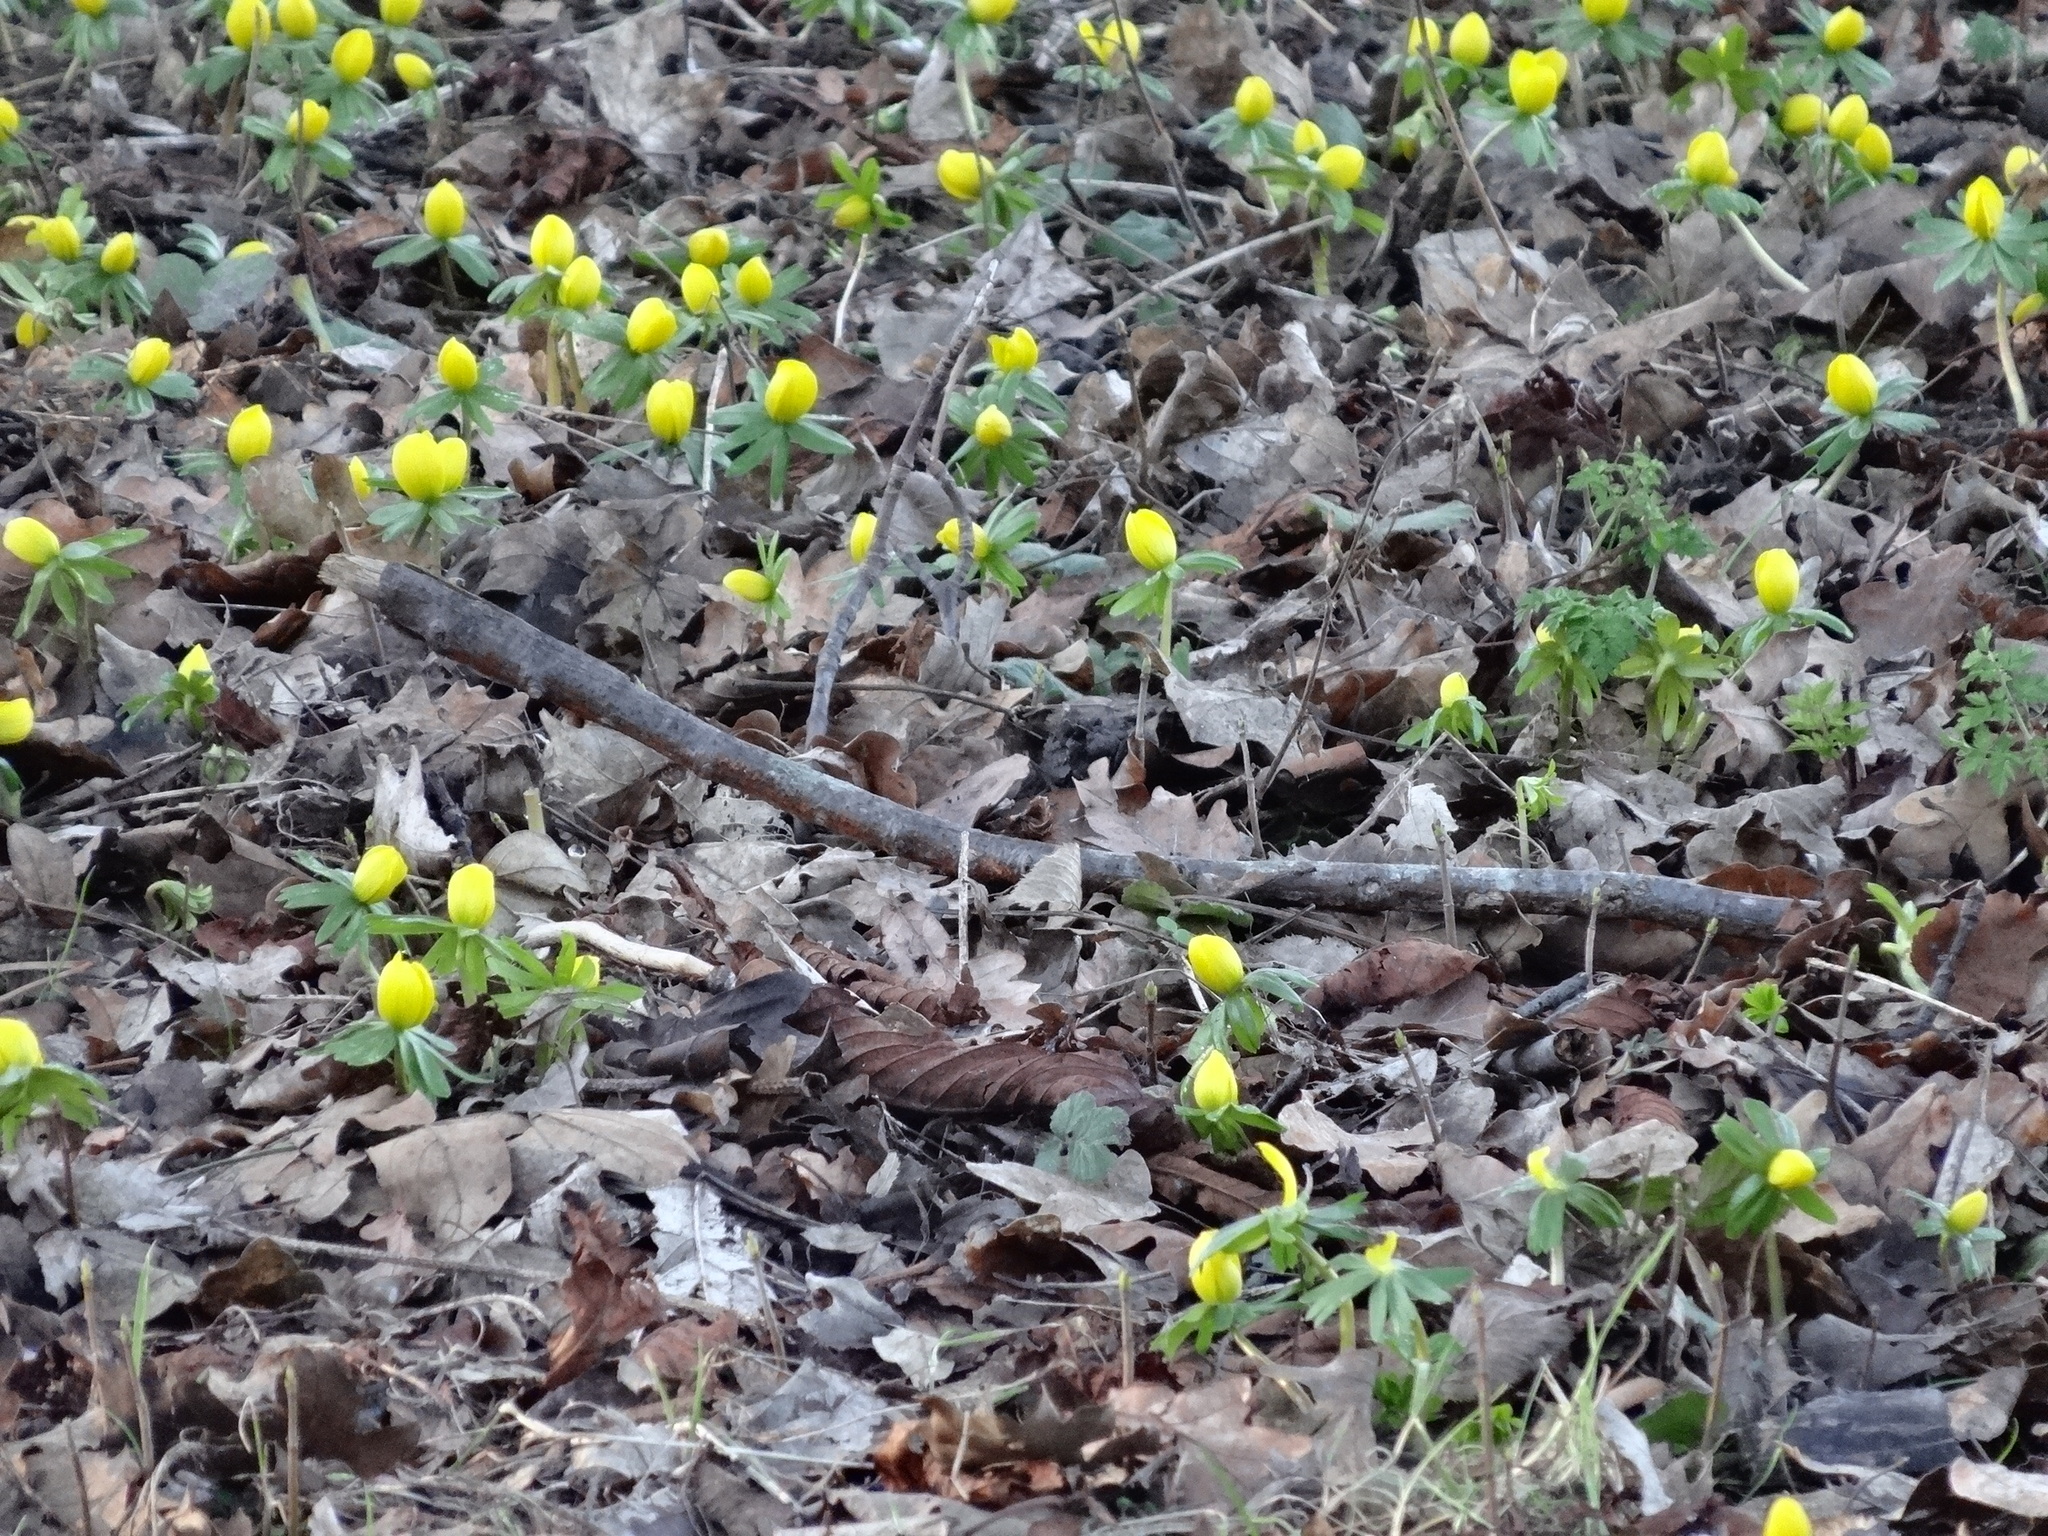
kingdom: Plantae
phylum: Tracheophyta
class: Magnoliopsida
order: Ranunculales
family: Ranunculaceae
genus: Eranthis
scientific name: Eranthis hyemalis
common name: Winter aconite
